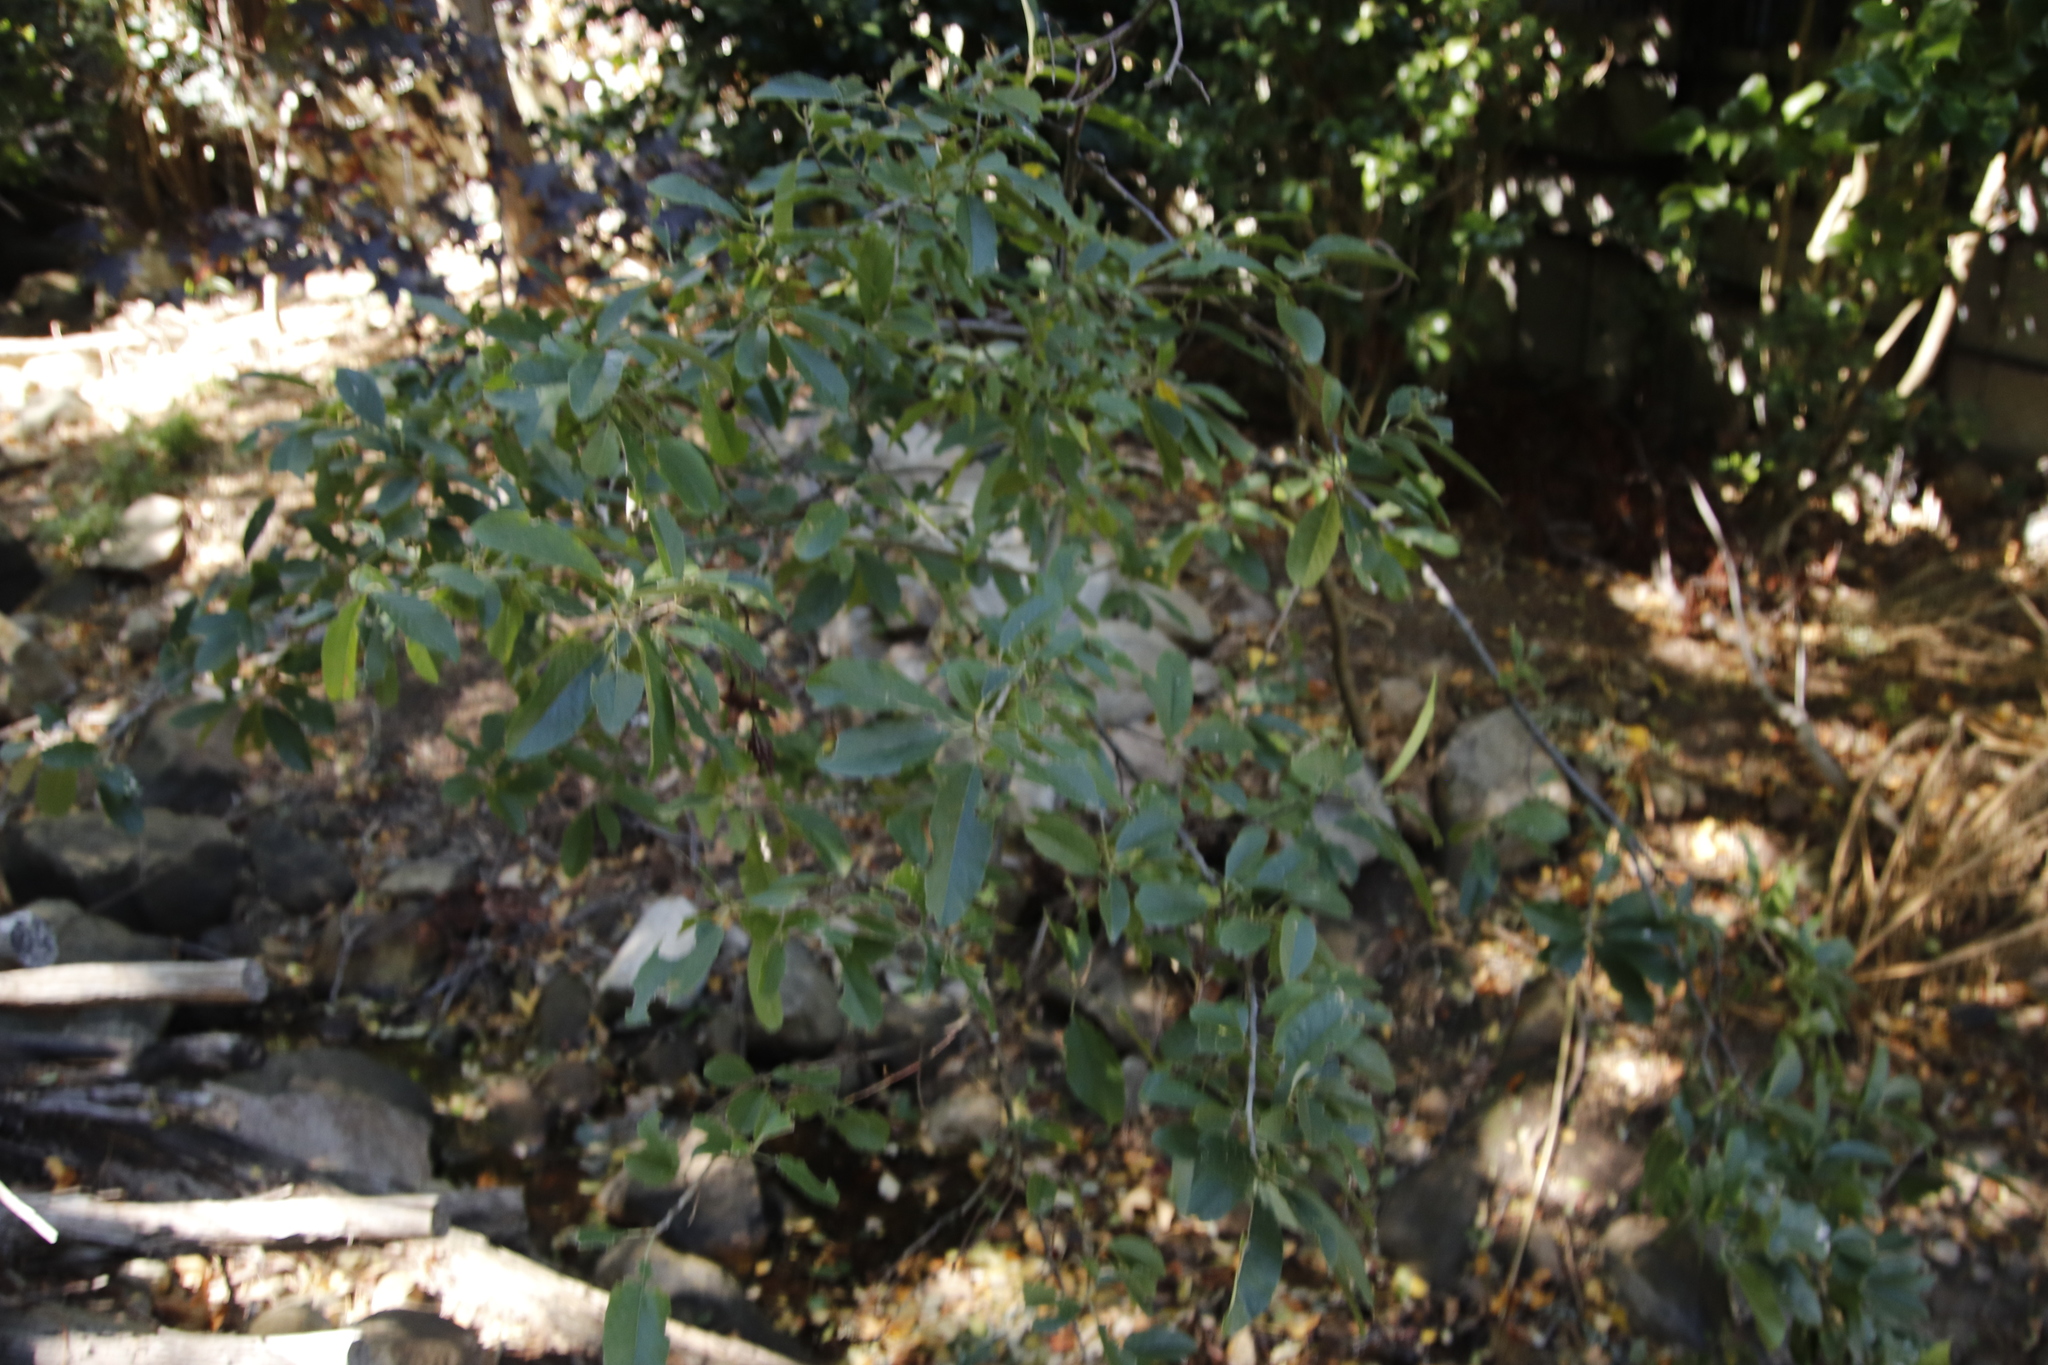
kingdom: Plantae
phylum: Tracheophyta
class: Magnoliopsida
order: Malpighiales
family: Achariaceae
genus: Kiggelaria
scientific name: Kiggelaria africana
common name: Wild peach
